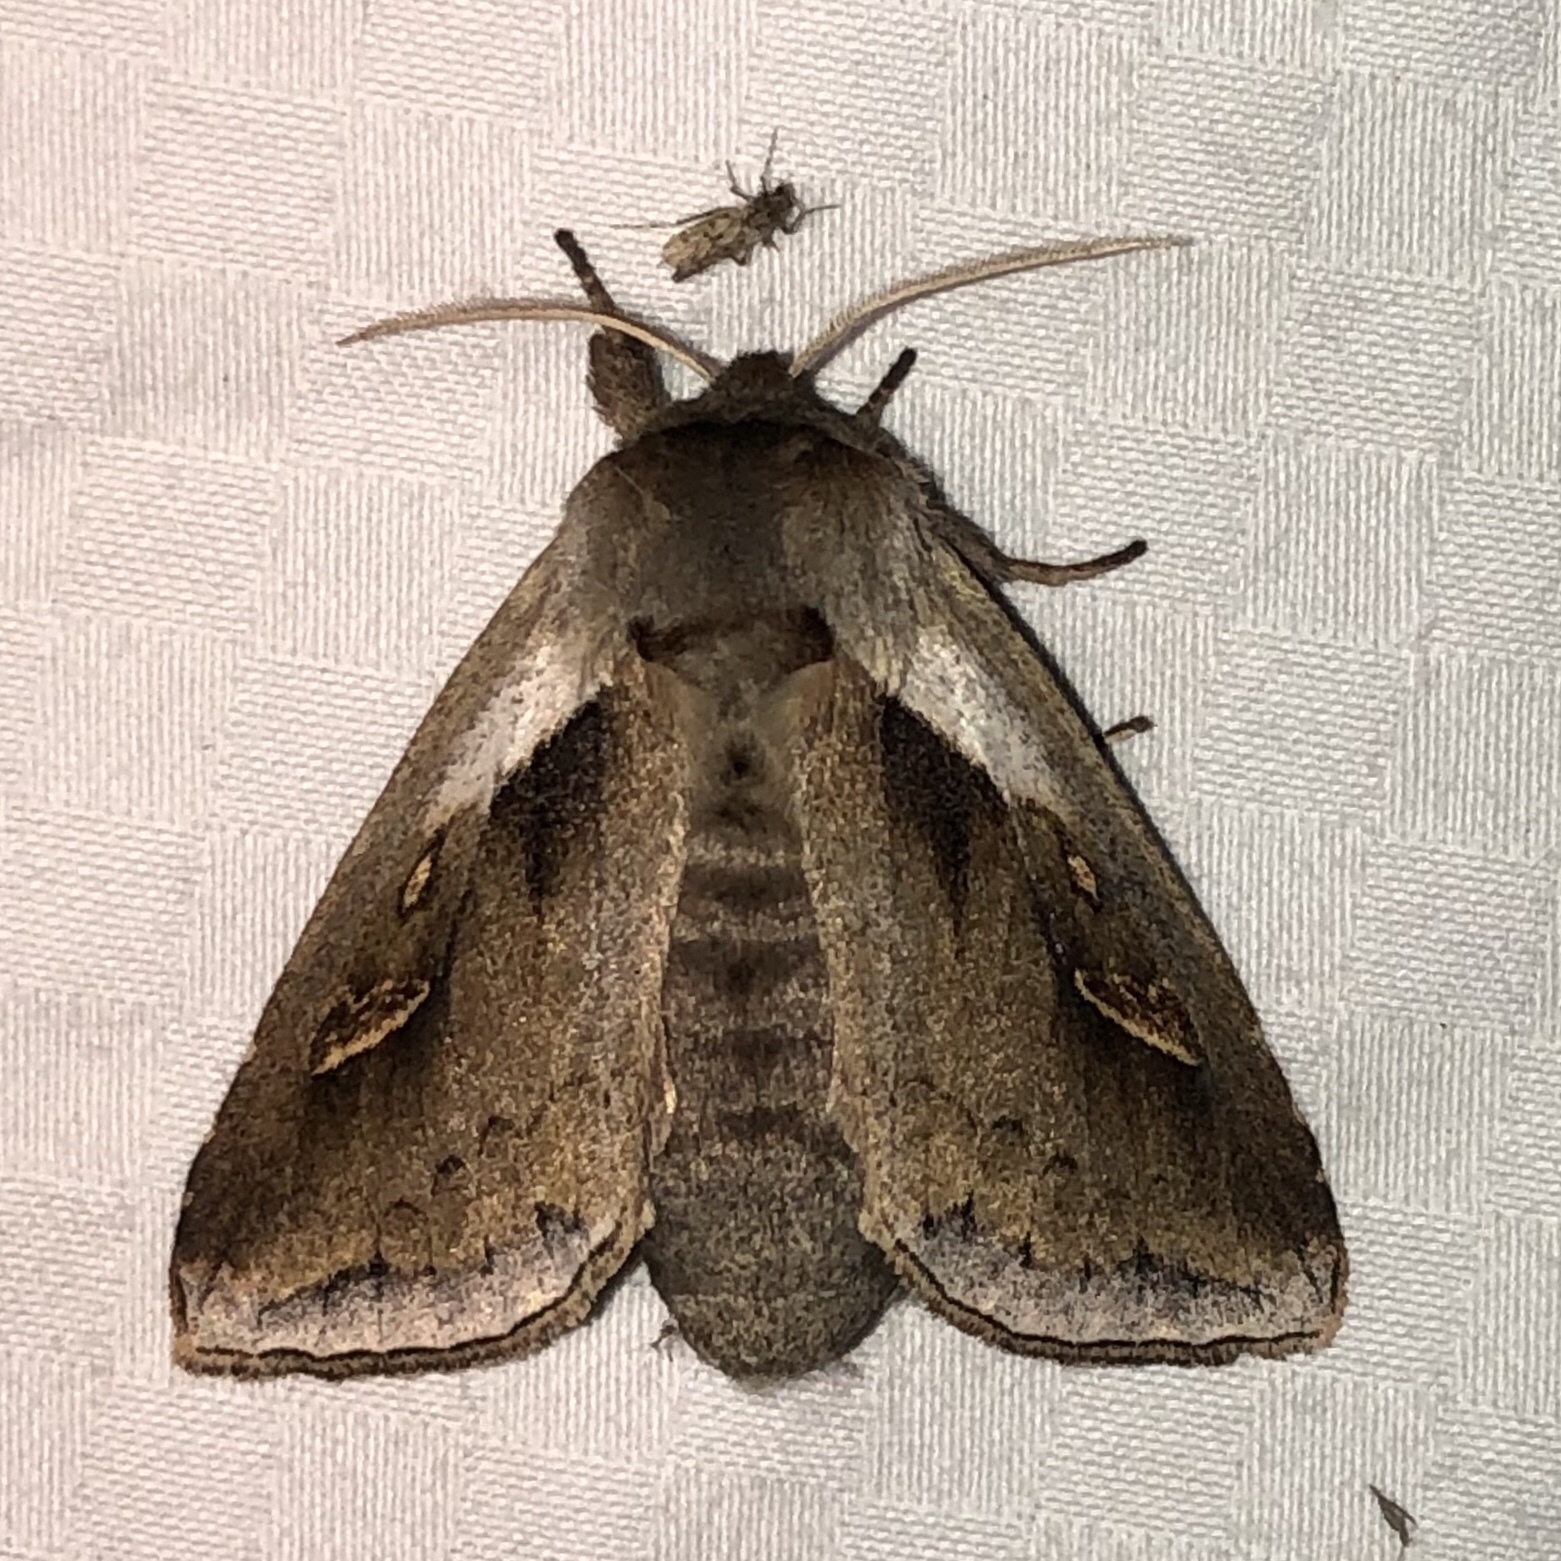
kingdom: Animalia
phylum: Arthropoda
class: Insecta
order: Lepidoptera
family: Noctuidae
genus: Bellura
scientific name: Bellura obliqua
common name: Cattail borer moth
